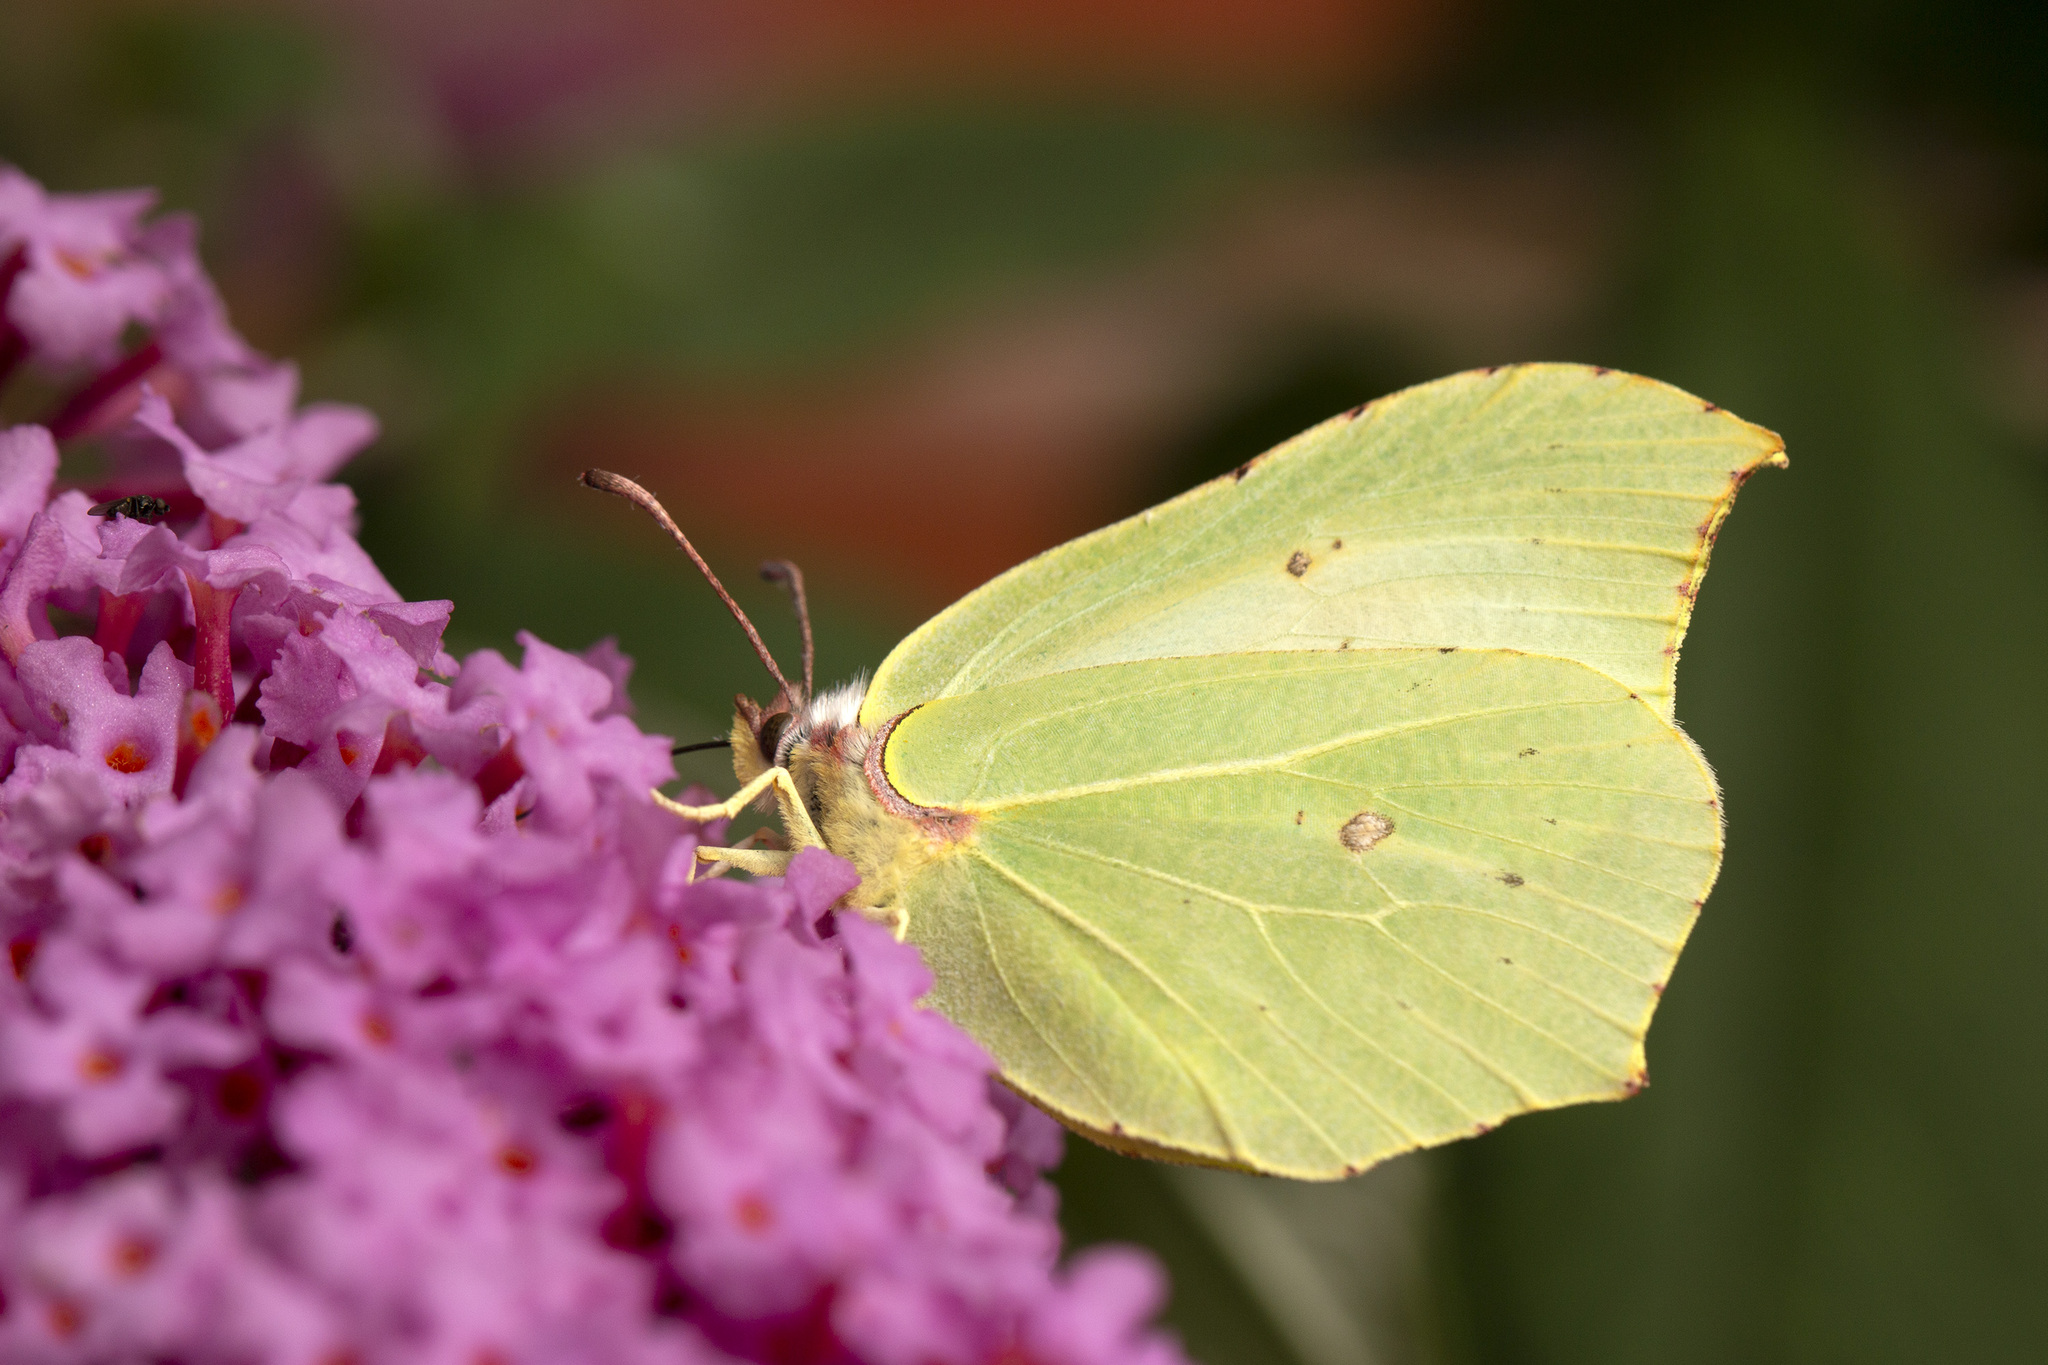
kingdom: Animalia
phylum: Arthropoda
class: Insecta
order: Lepidoptera
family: Pieridae
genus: Gonepteryx
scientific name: Gonepteryx rhamni
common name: Brimstone
